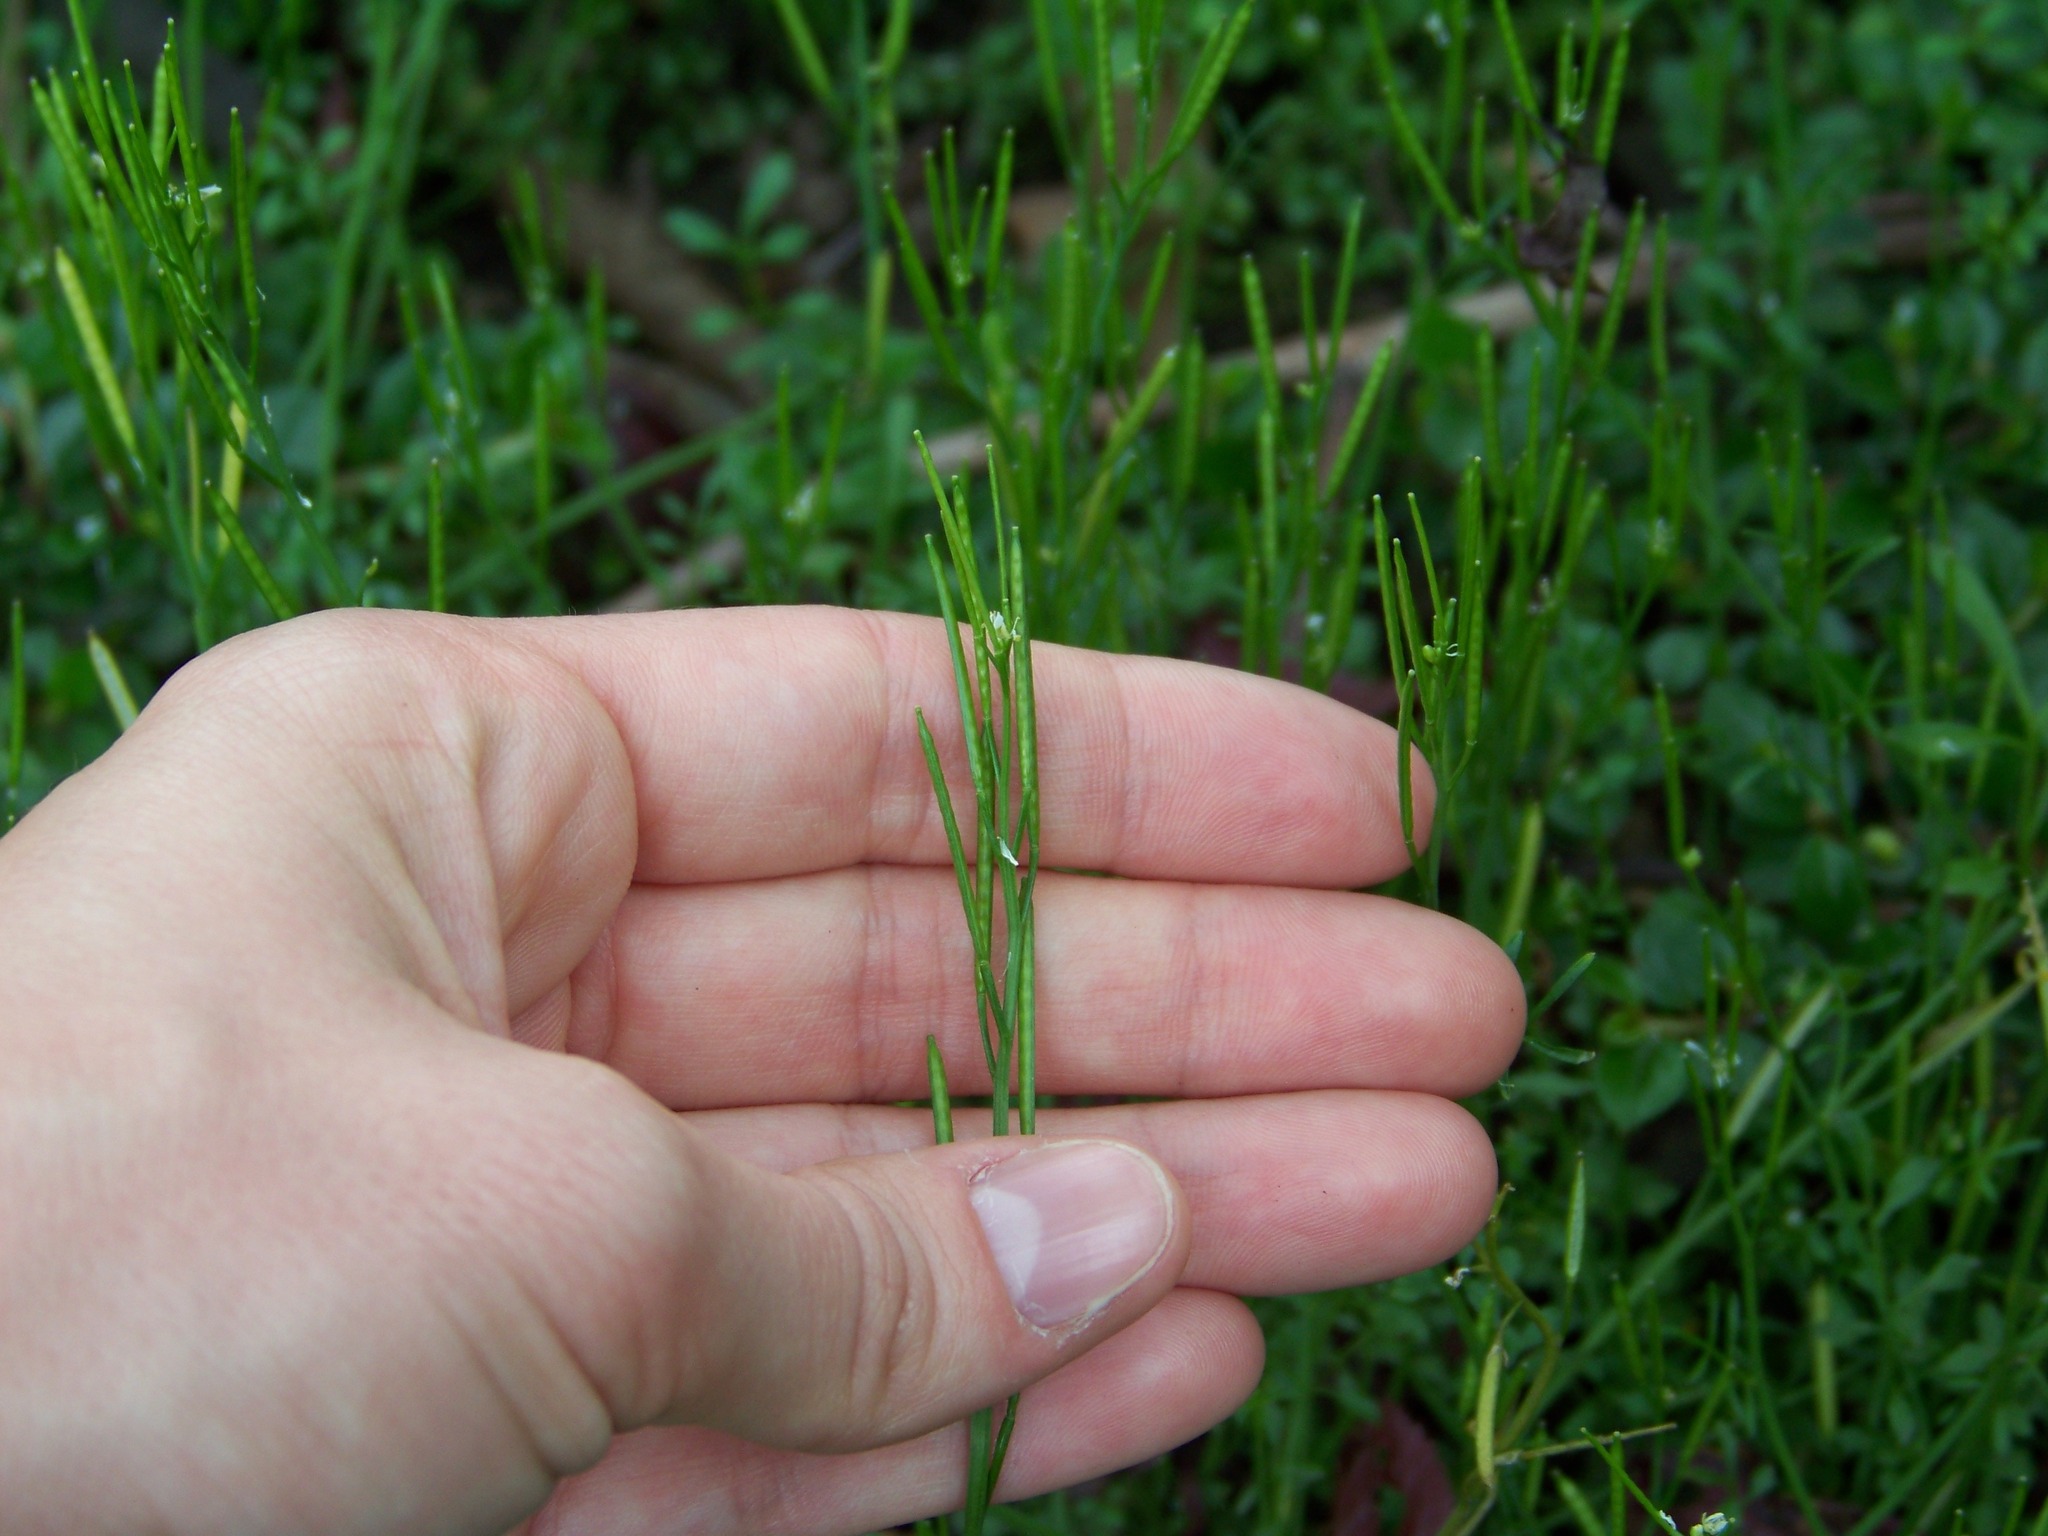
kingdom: Plantae
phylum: Tracheophyta
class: Magnoliopsida
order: Brassicales
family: Brassicaceae
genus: Cardamine
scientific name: Cardamine hirsuta
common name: Hairy bittercress
